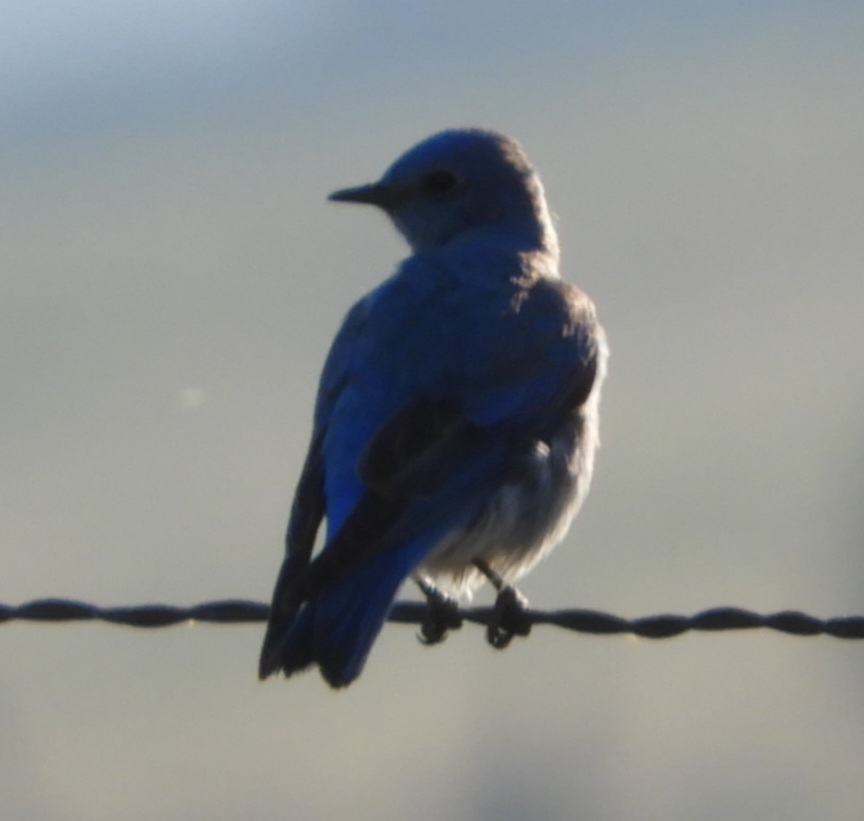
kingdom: Animalia
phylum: Chordata
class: Aves
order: Passeriformes
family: Turdidae
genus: Sialia
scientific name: Sialia currucoides
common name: Mountain bluebird
